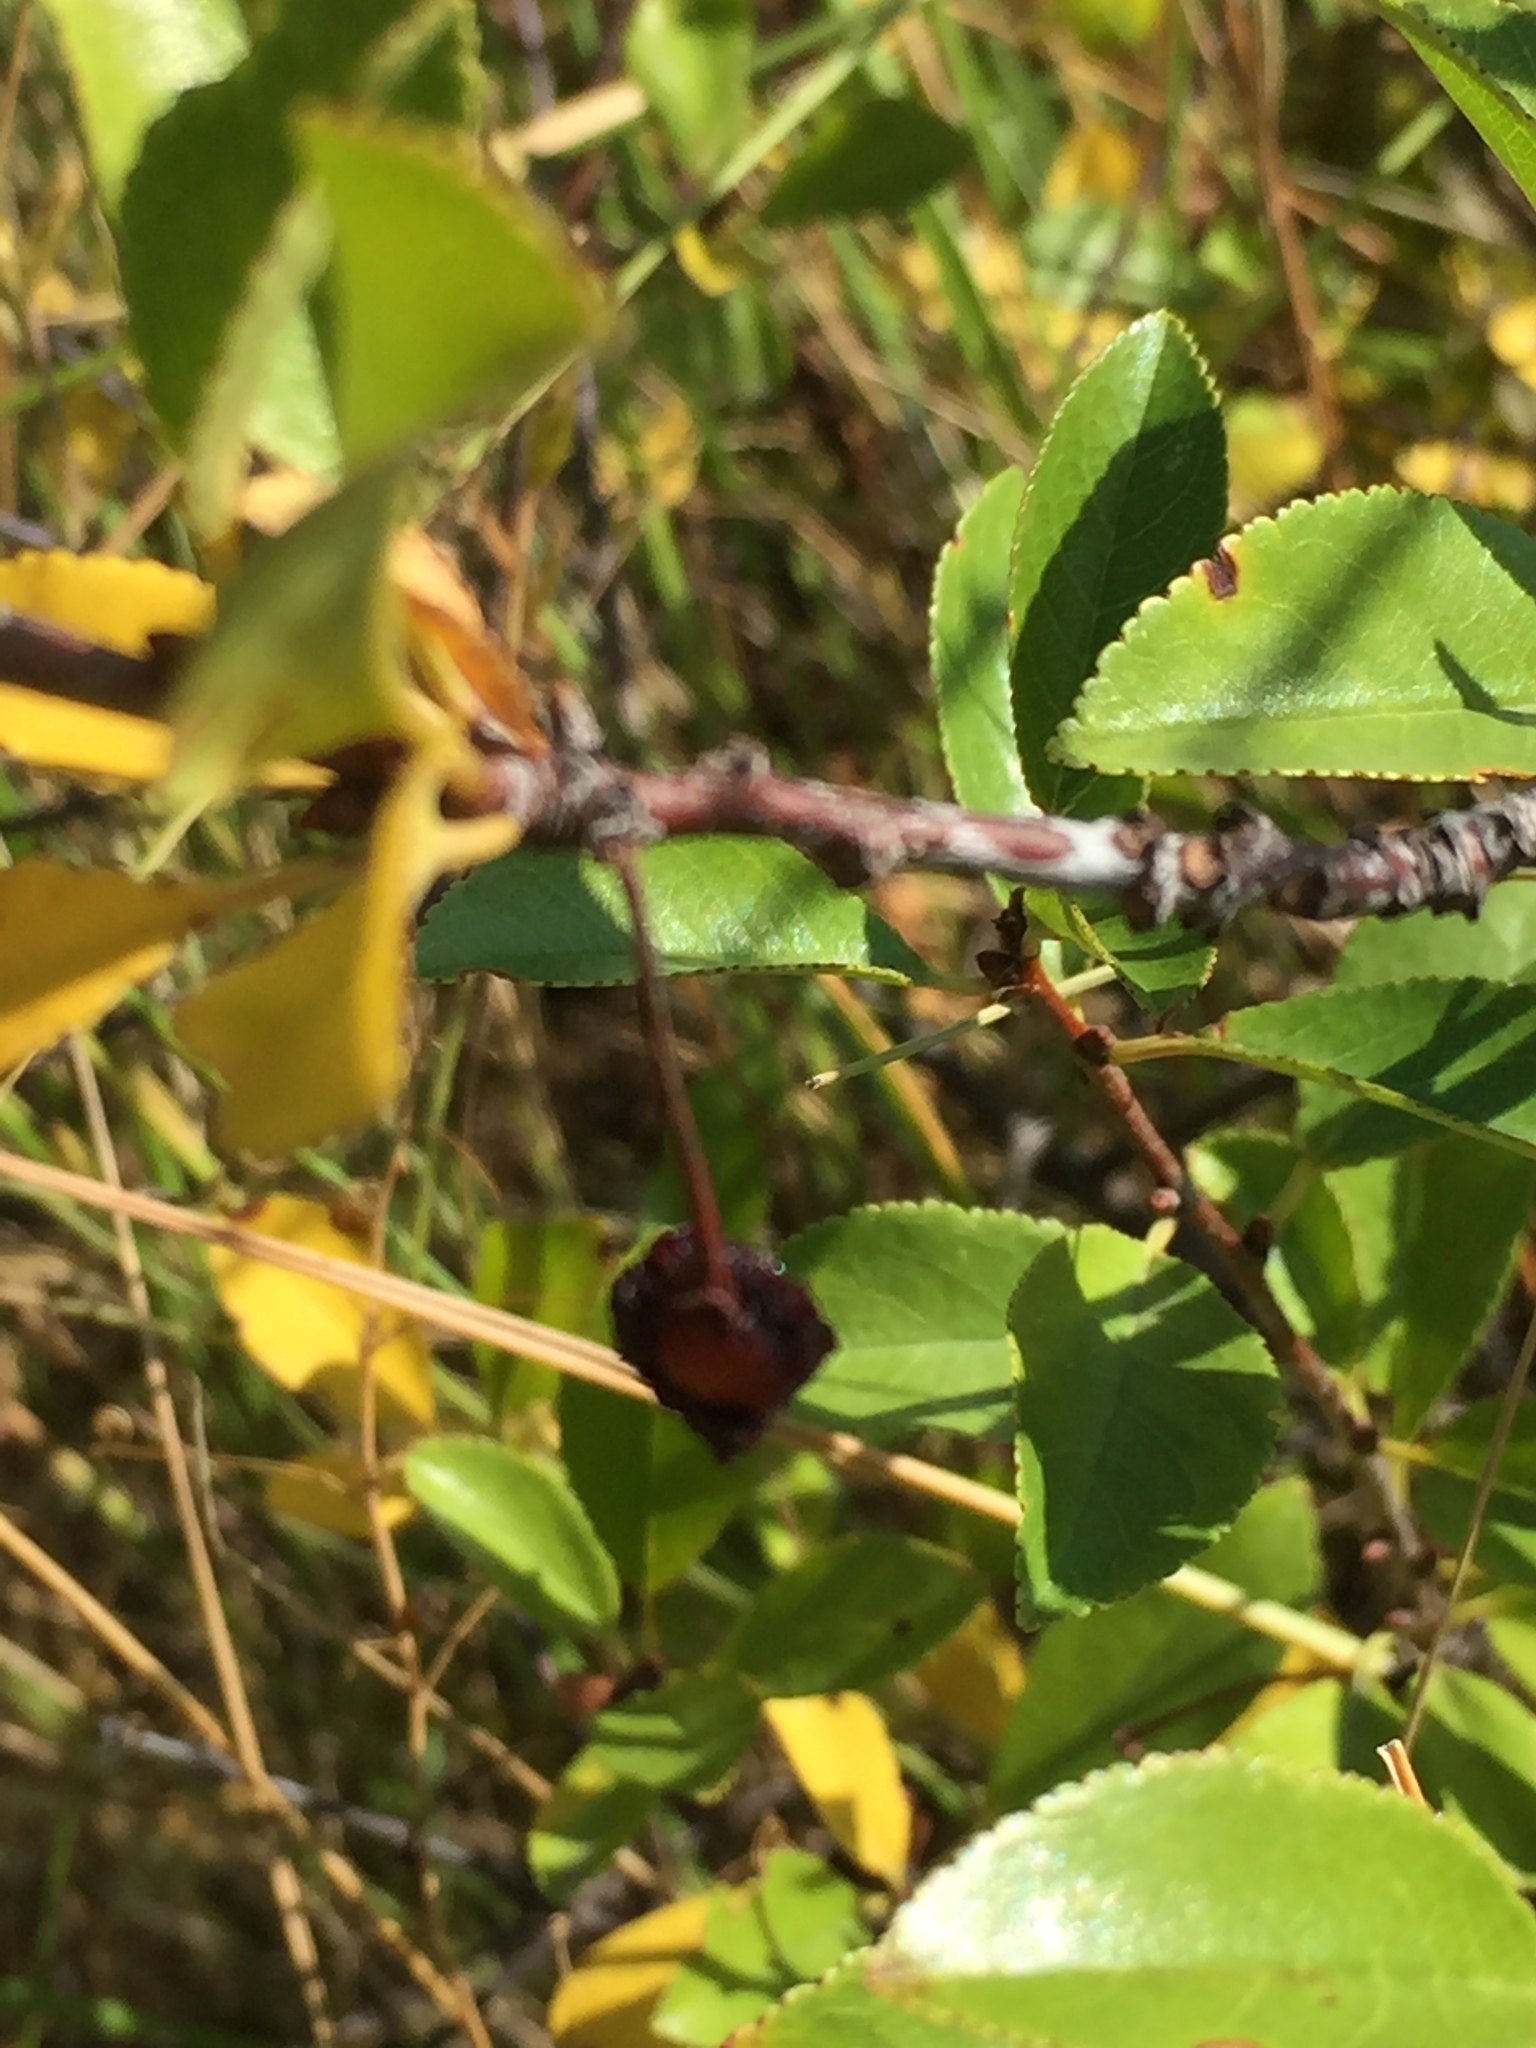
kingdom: Plantae
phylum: Tracheophyta
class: Magnoliopsida
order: Rosales
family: Rosaceae
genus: Prunus
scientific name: Prunus fruticosa
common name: European dwarf cherry
